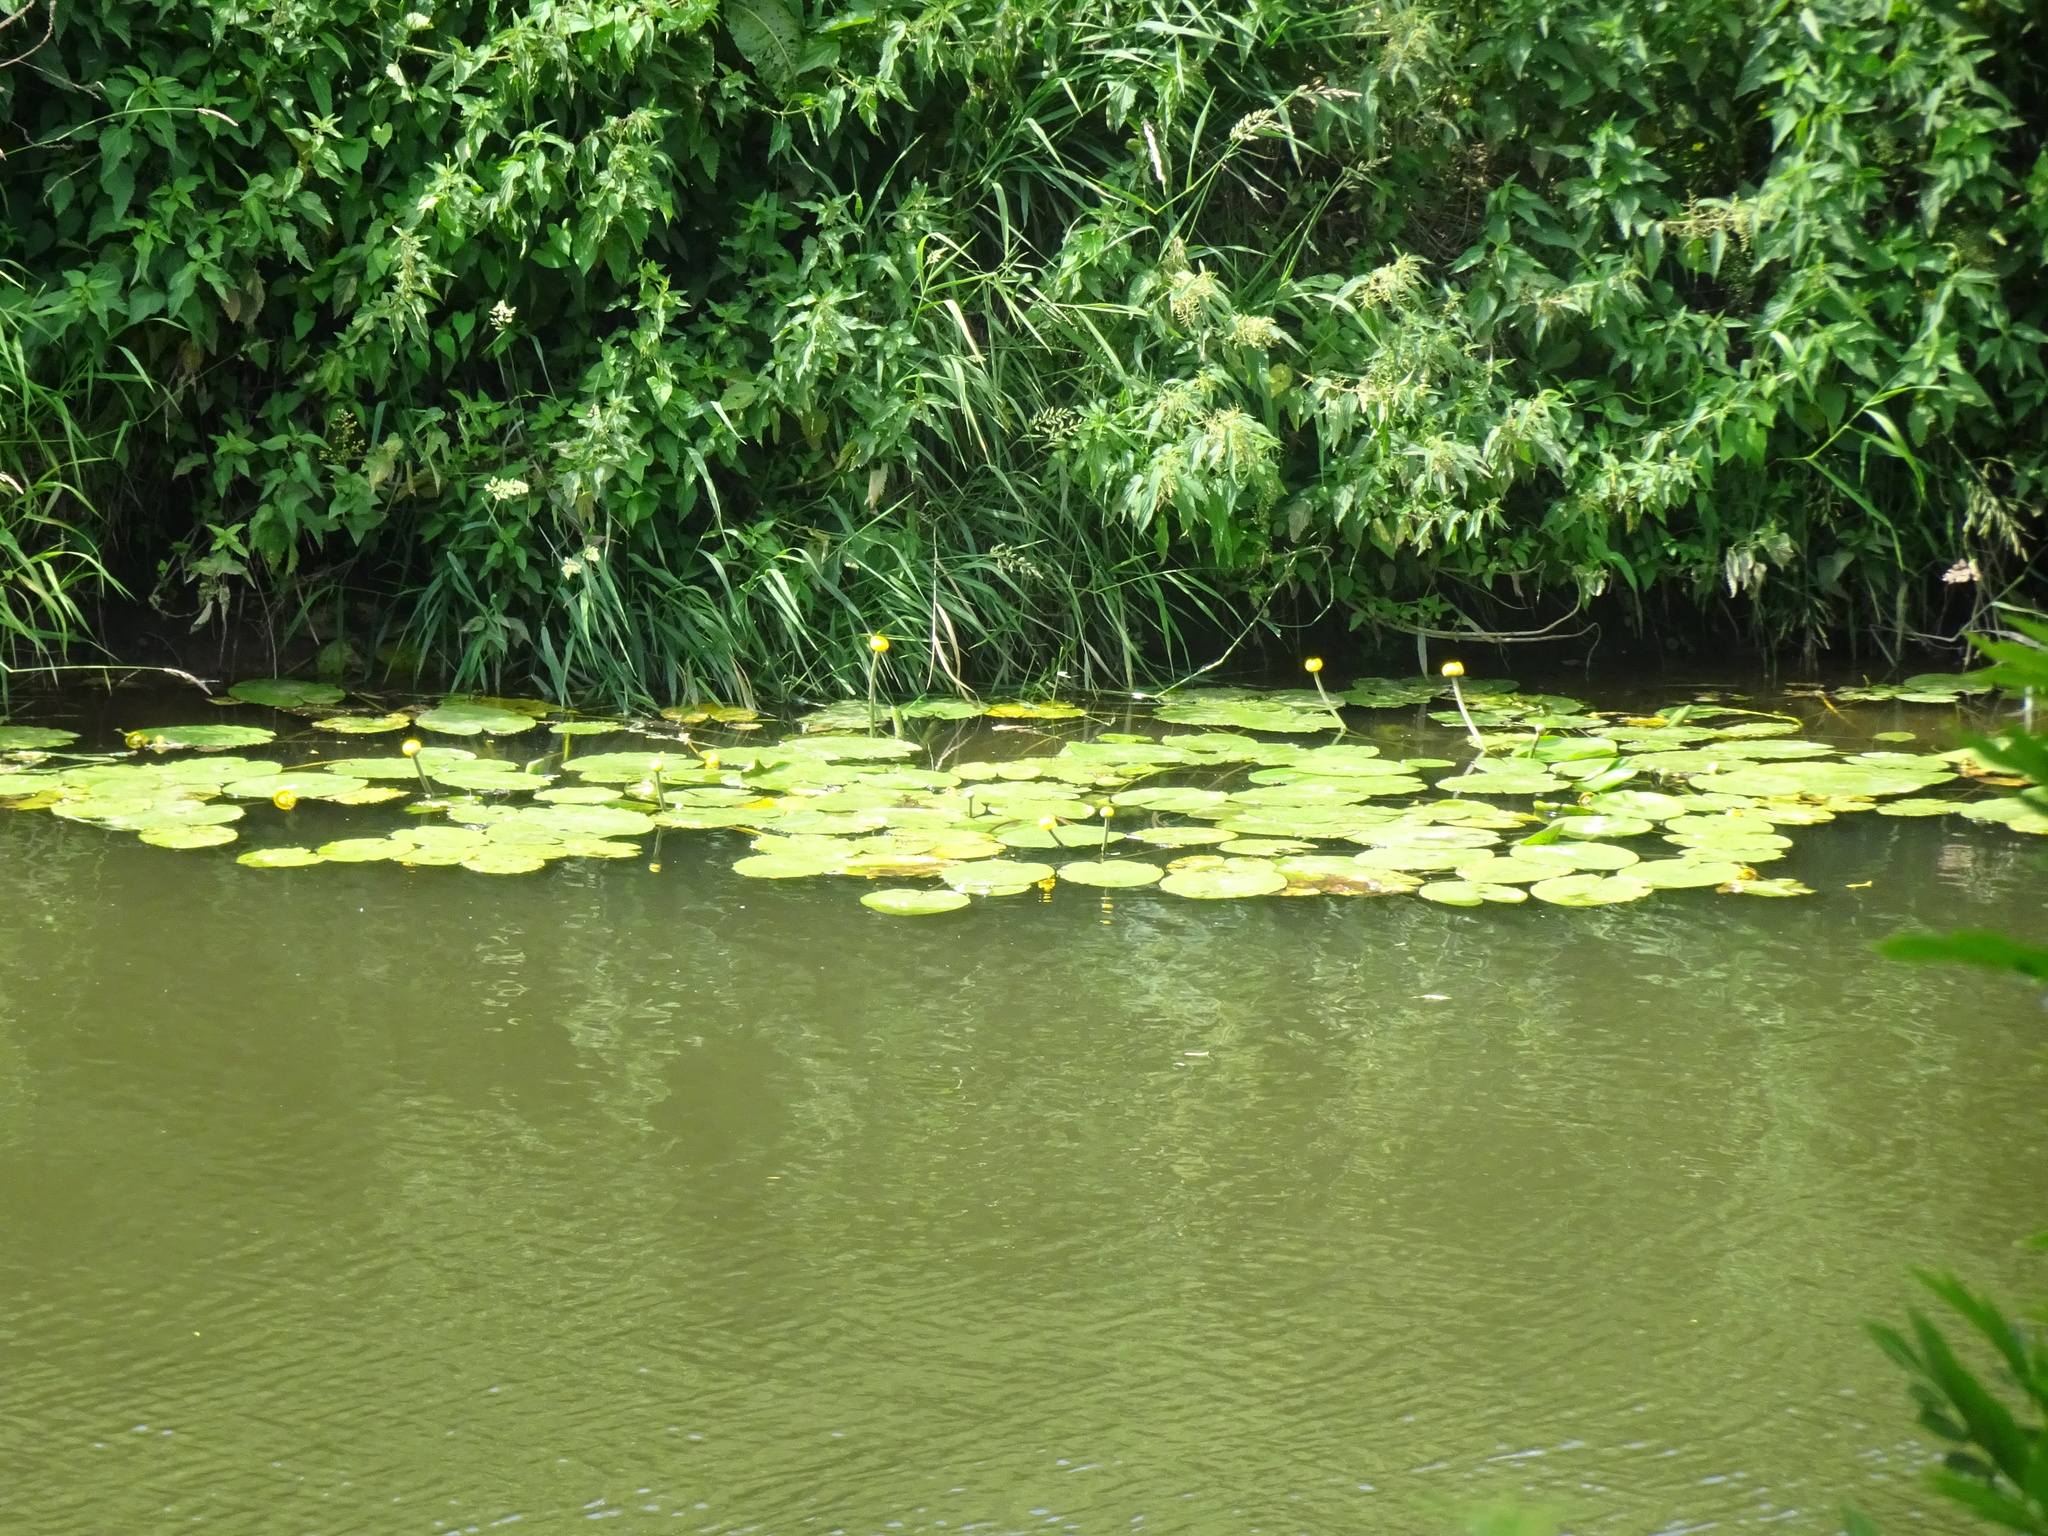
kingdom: Plantae
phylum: Tracheophyta
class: Magnoliopsida
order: Nymphaeales
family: Nymphaeaceae
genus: Nuphar
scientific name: Nuphar lutea
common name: Yellow water-lily
